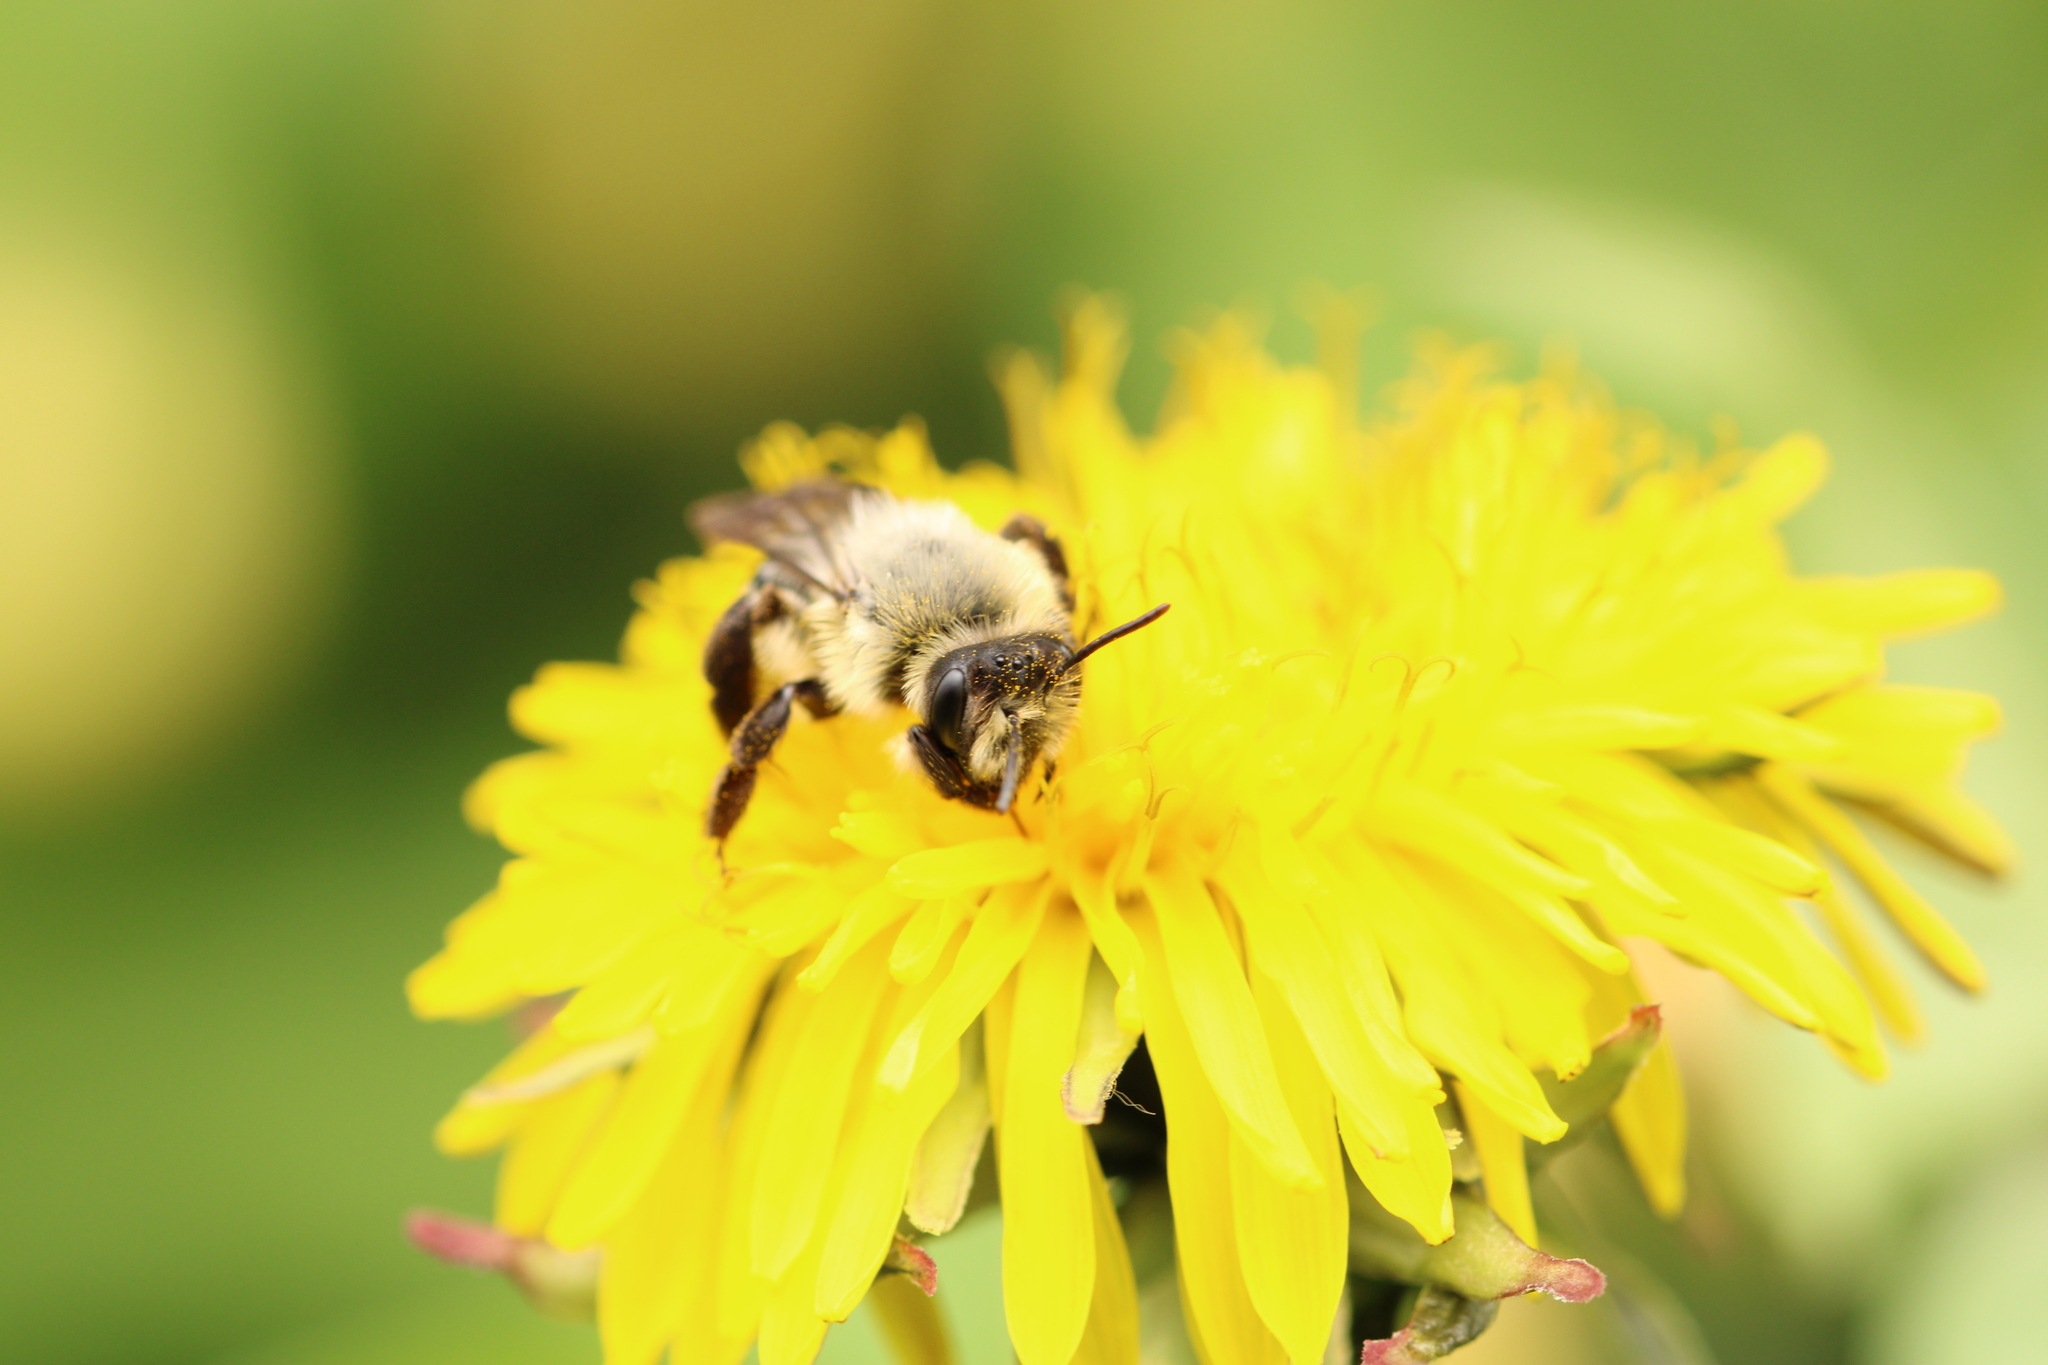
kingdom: Animalia
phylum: Arthropoda
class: Insecta
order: Hymenoptera
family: Andrenidae
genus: Andrena
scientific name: Andrena vaga
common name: Grey-backed mining bee
